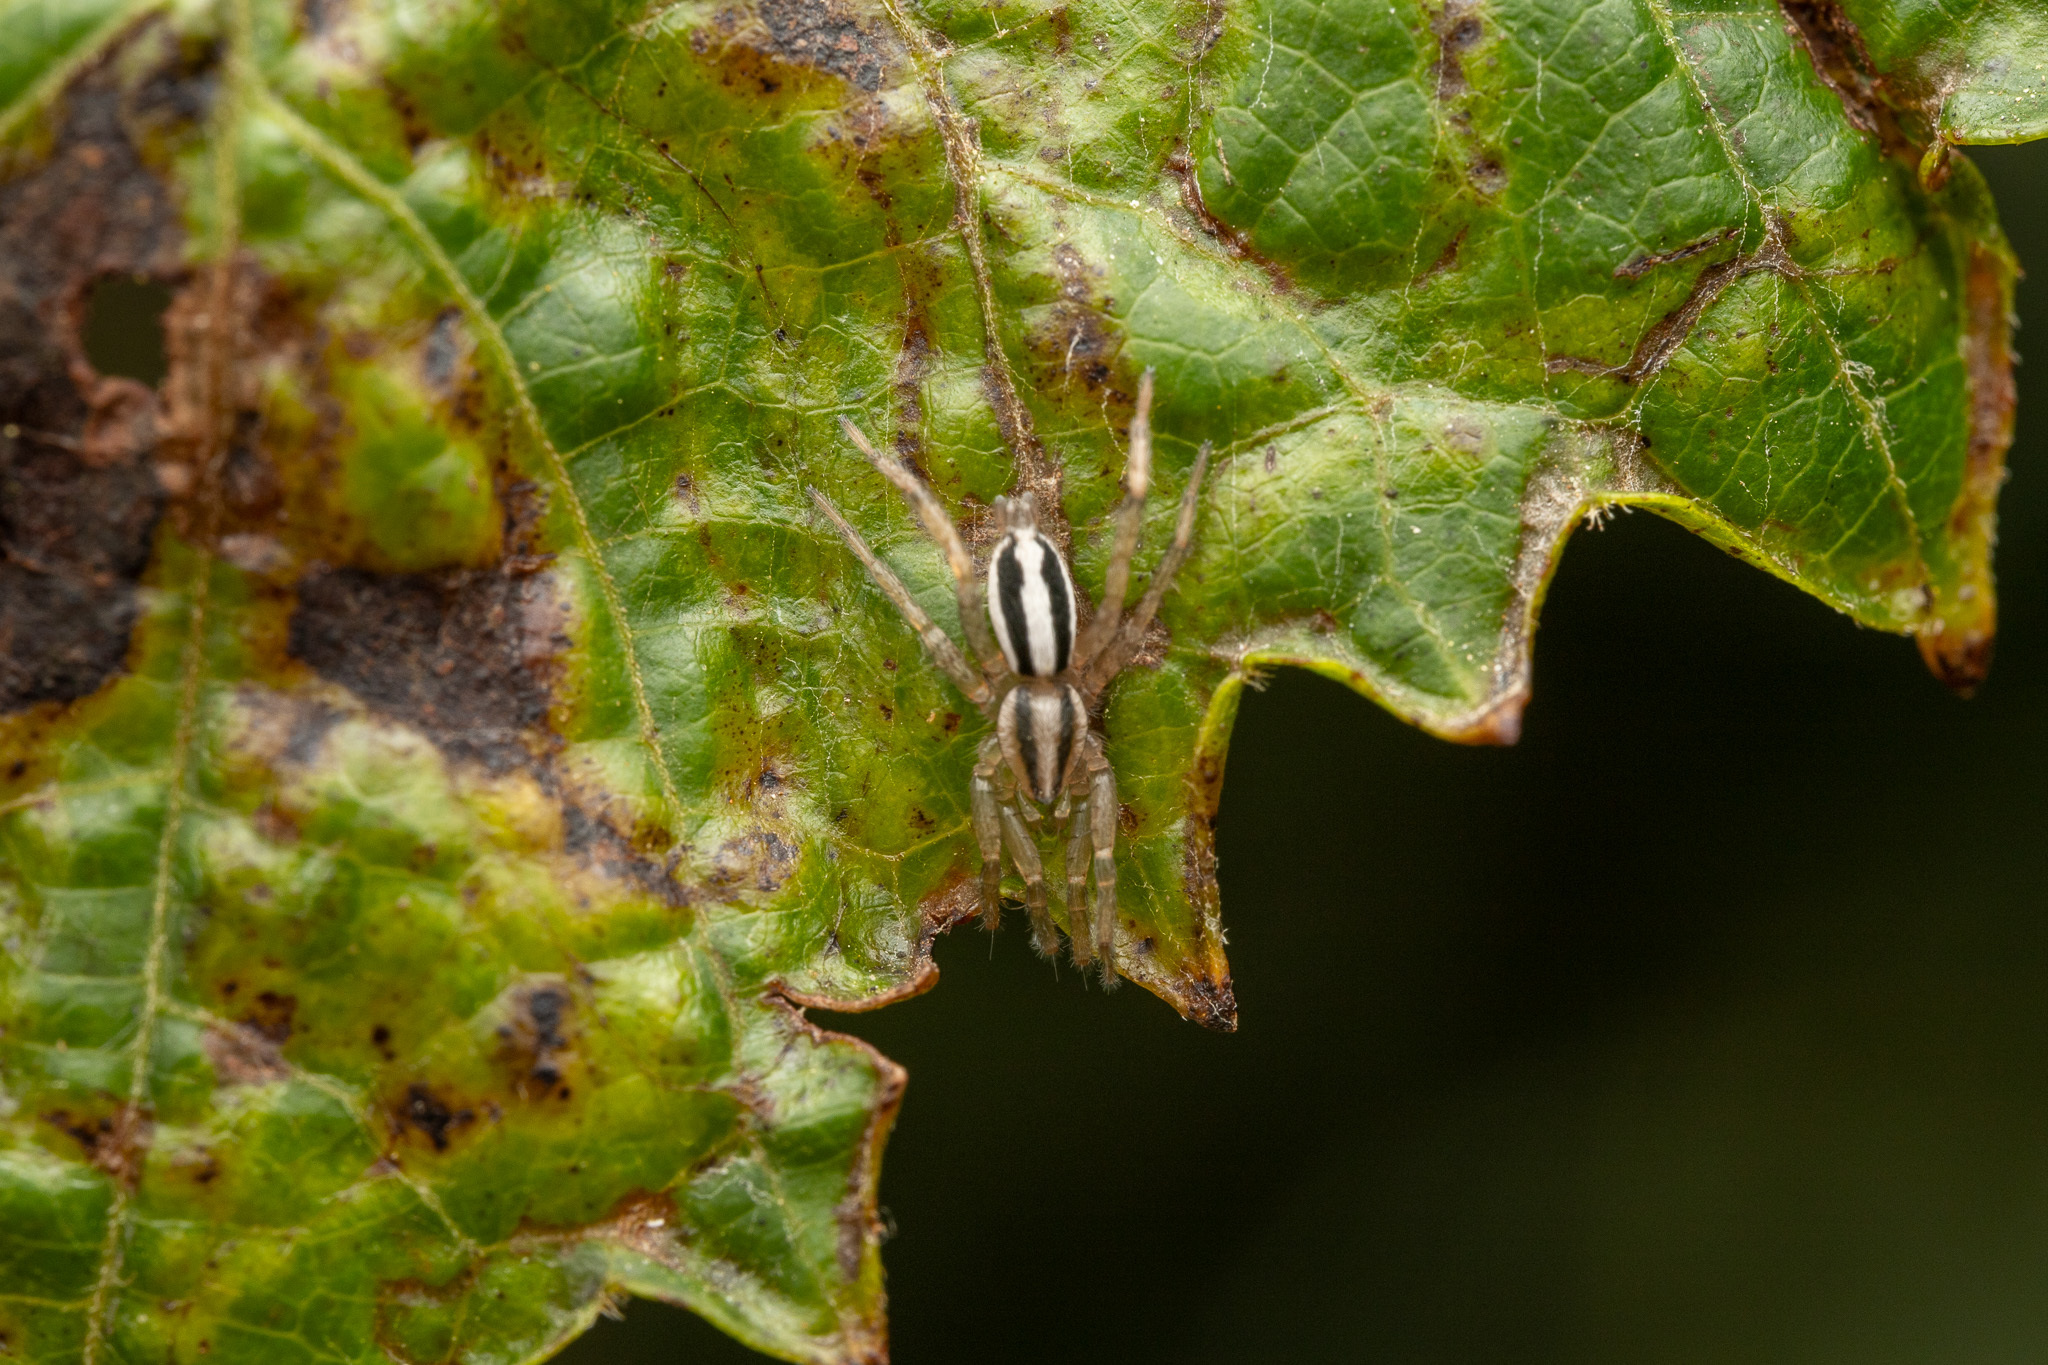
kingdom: Animalia
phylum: Arthropoda
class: Arachnida
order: Araneae
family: Gnaphosidae
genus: Cesonia
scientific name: Cesonia bilineata
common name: Two-lined stealthy ground spider
